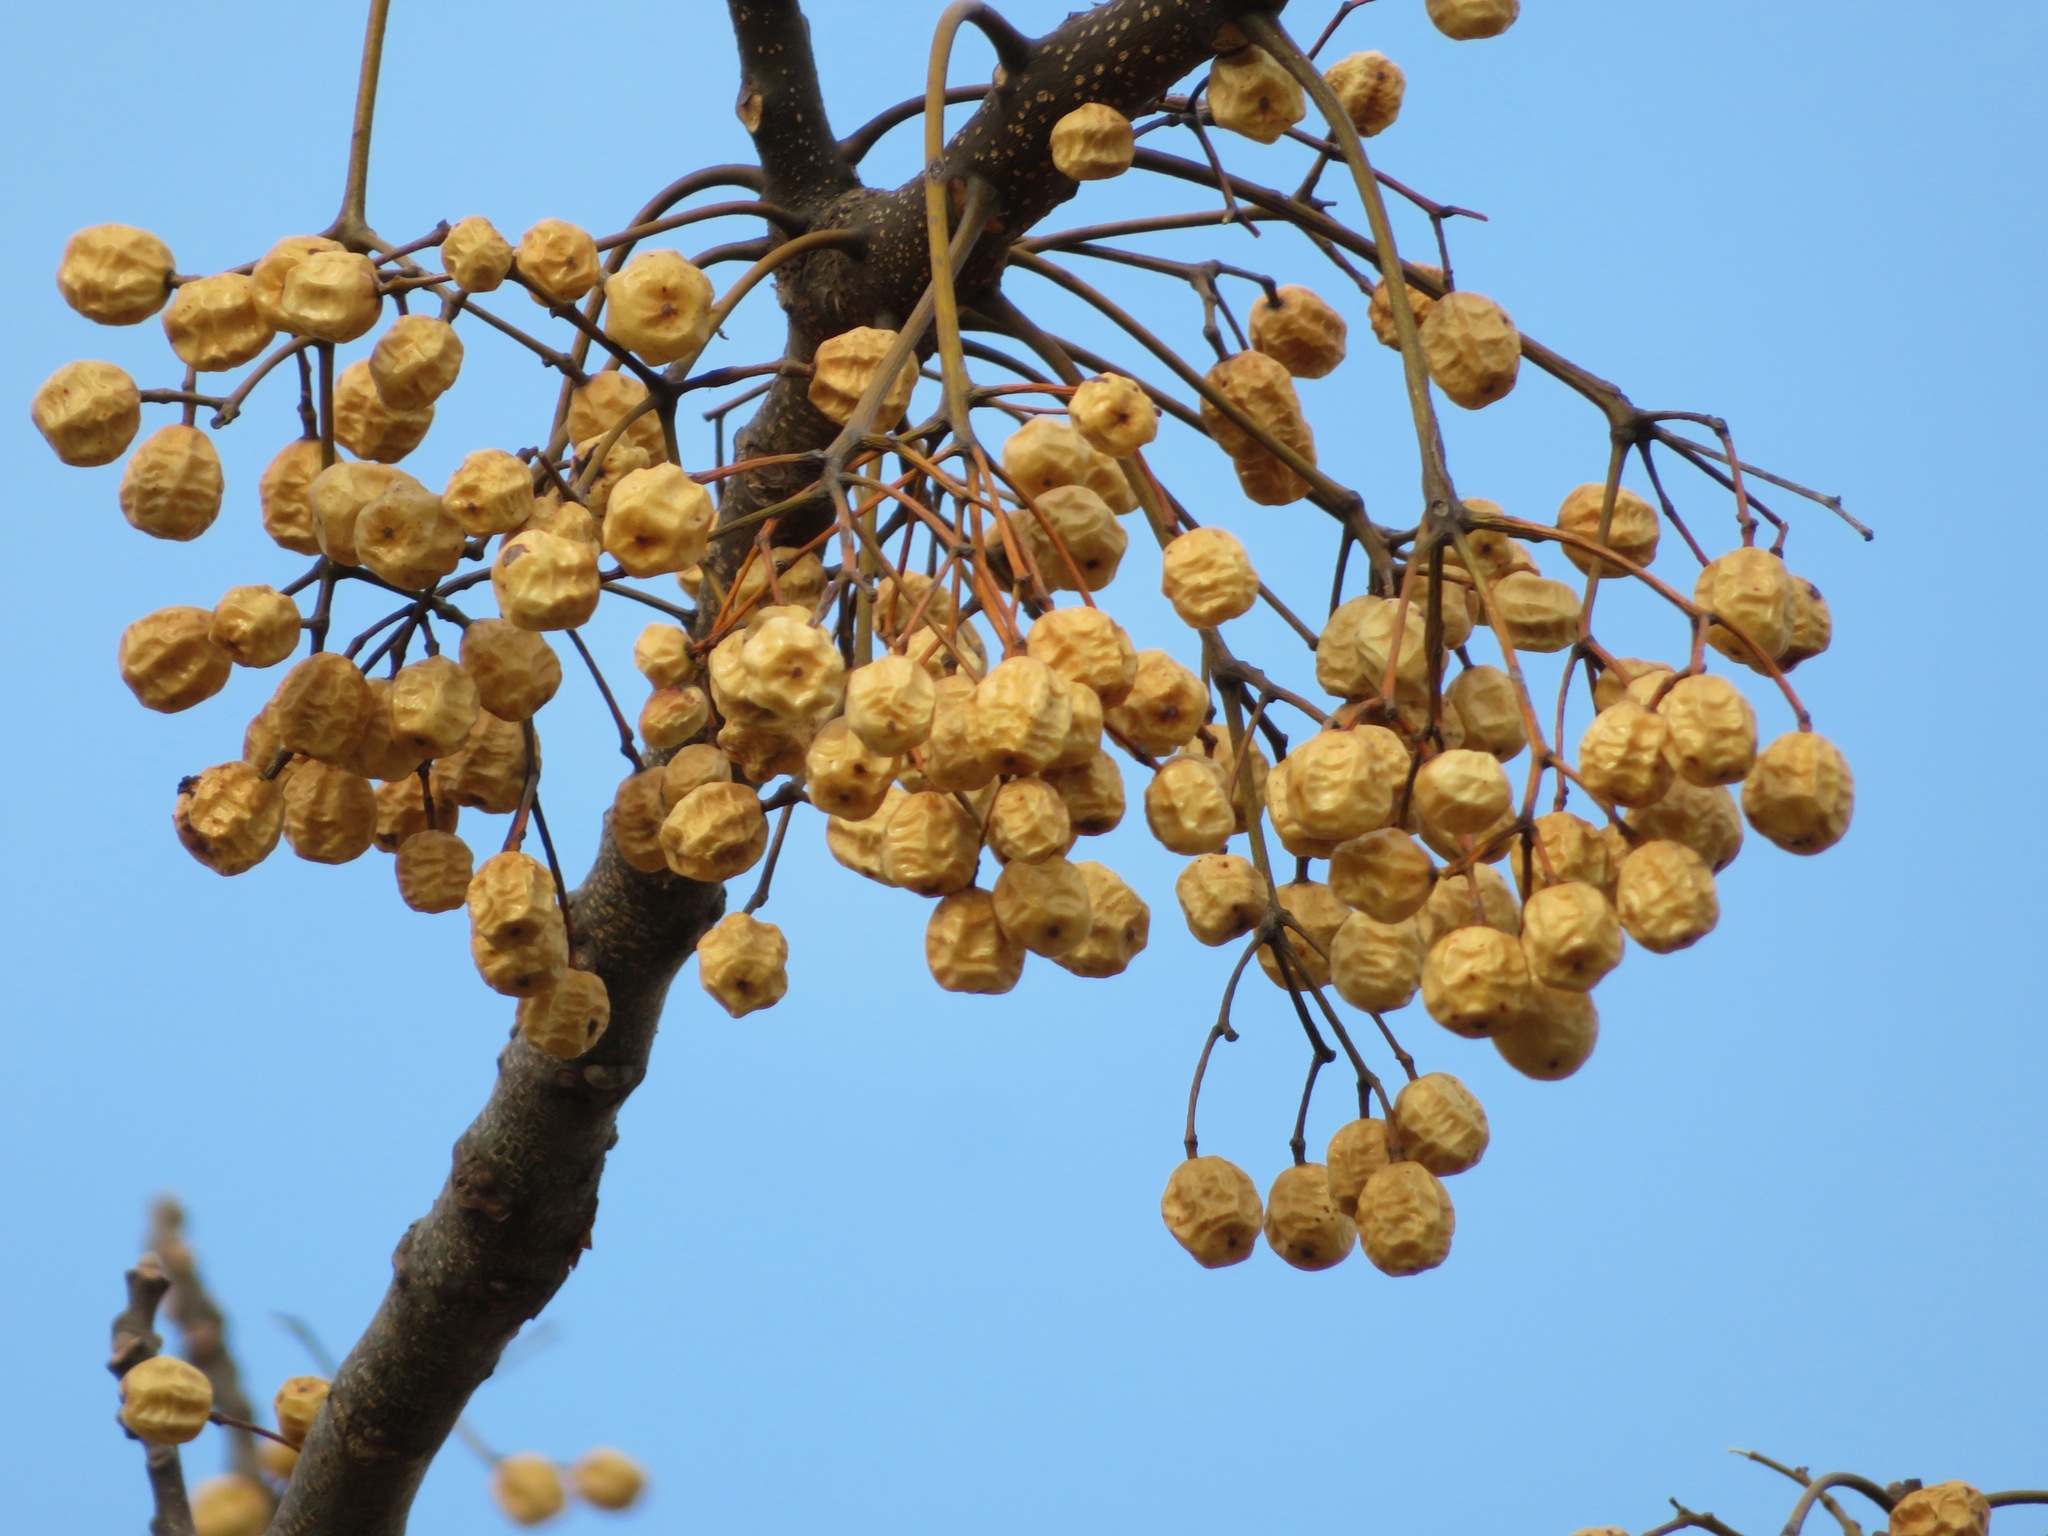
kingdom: Plantae
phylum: Tracheophyta
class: Magnoliopsida
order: Sapindales
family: Meliaceae
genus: Melia
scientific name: Melia azedarach
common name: Chinaberrytree
